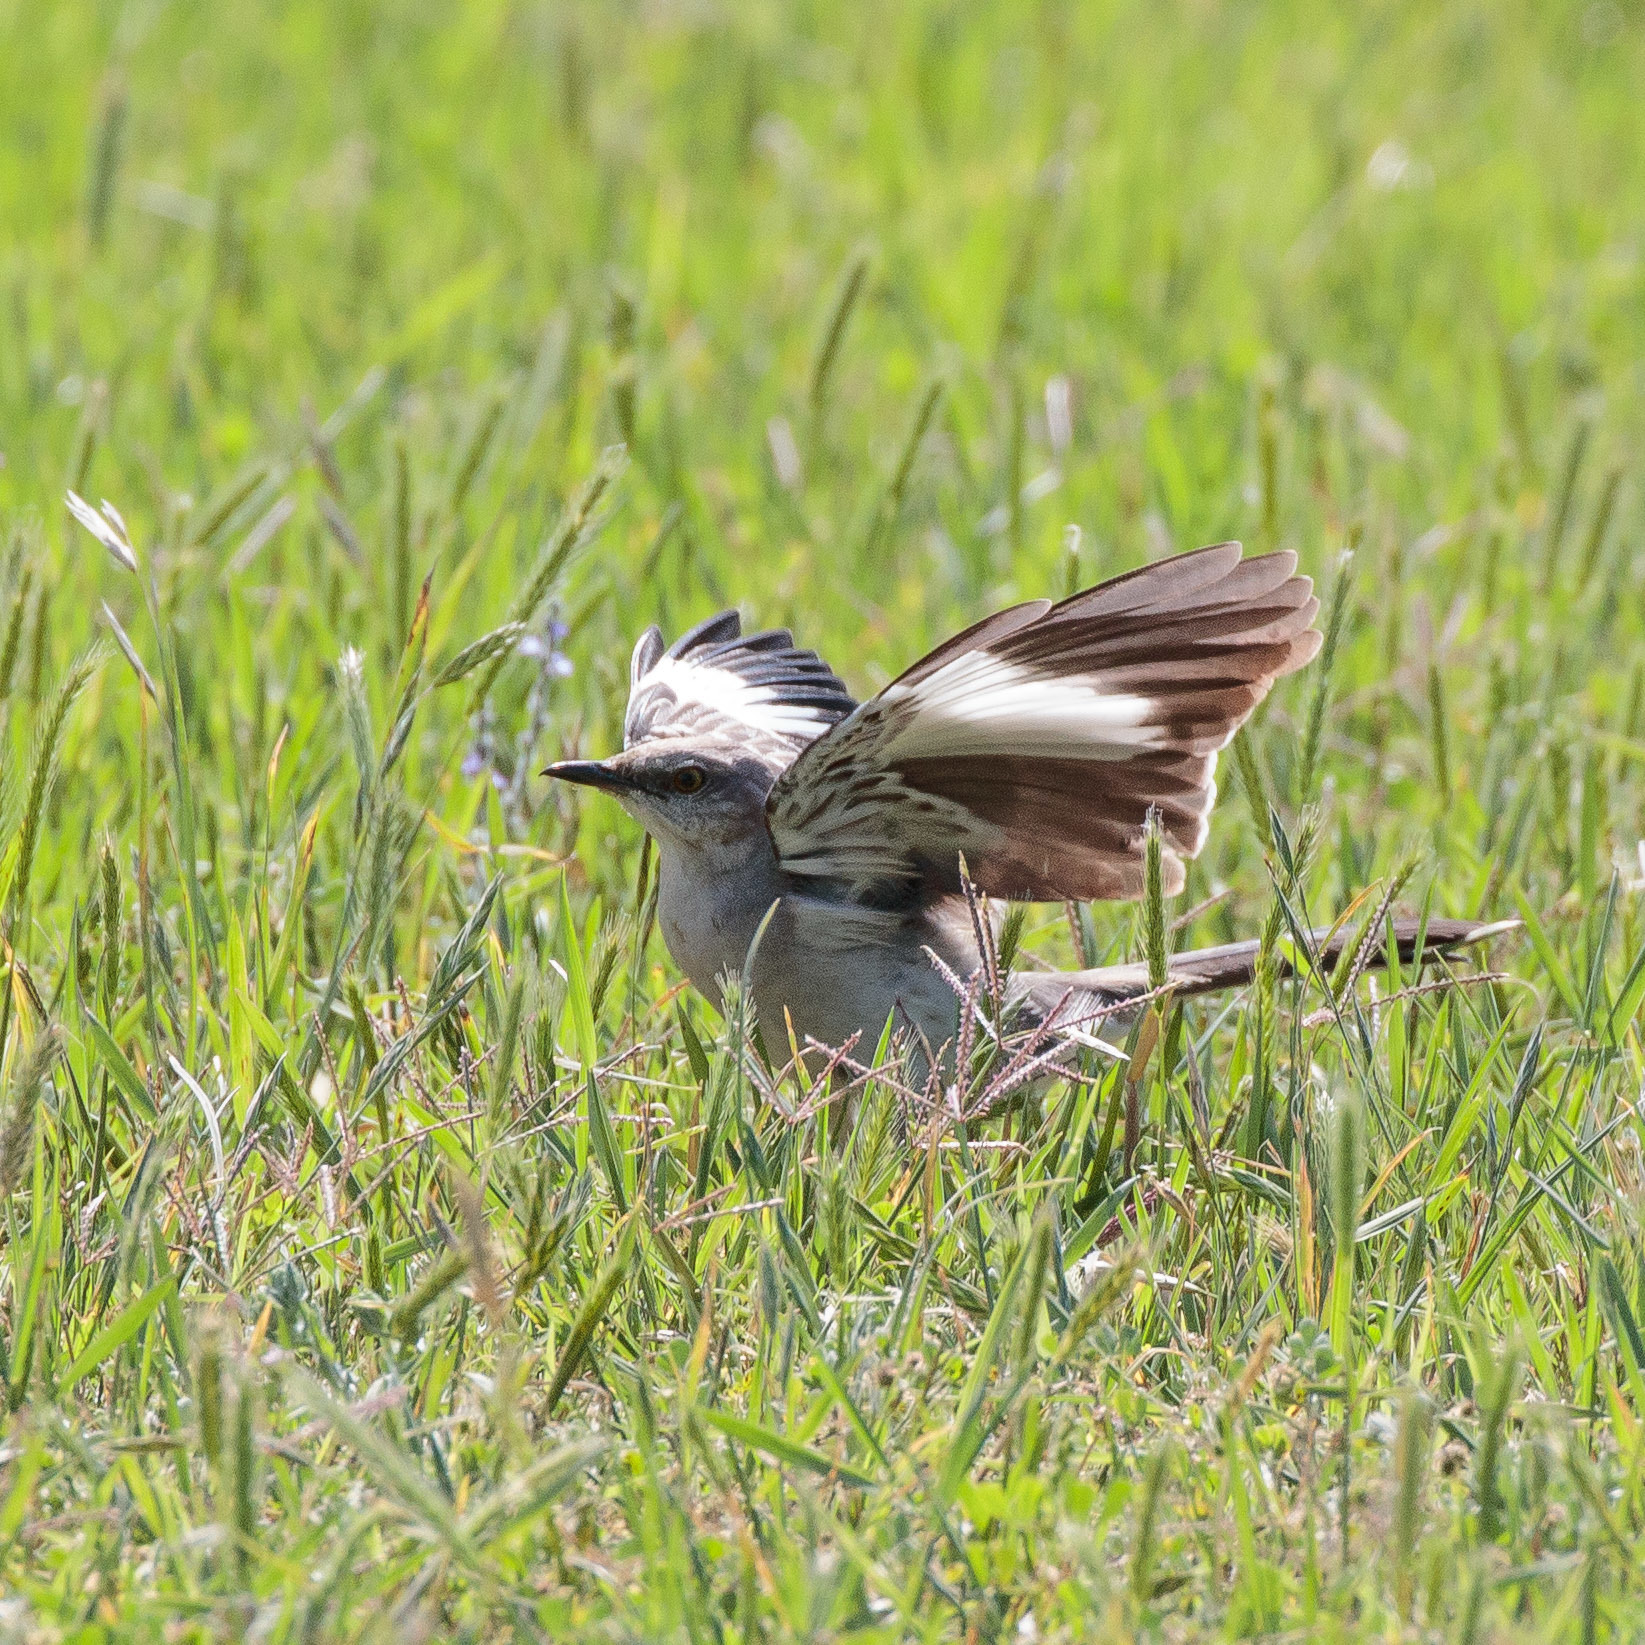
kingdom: Animalia
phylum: Chordata
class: Aves
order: Passeriformes
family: Mimidae
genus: Mimus
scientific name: Mimus polyglottos
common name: Northern mockingbird
